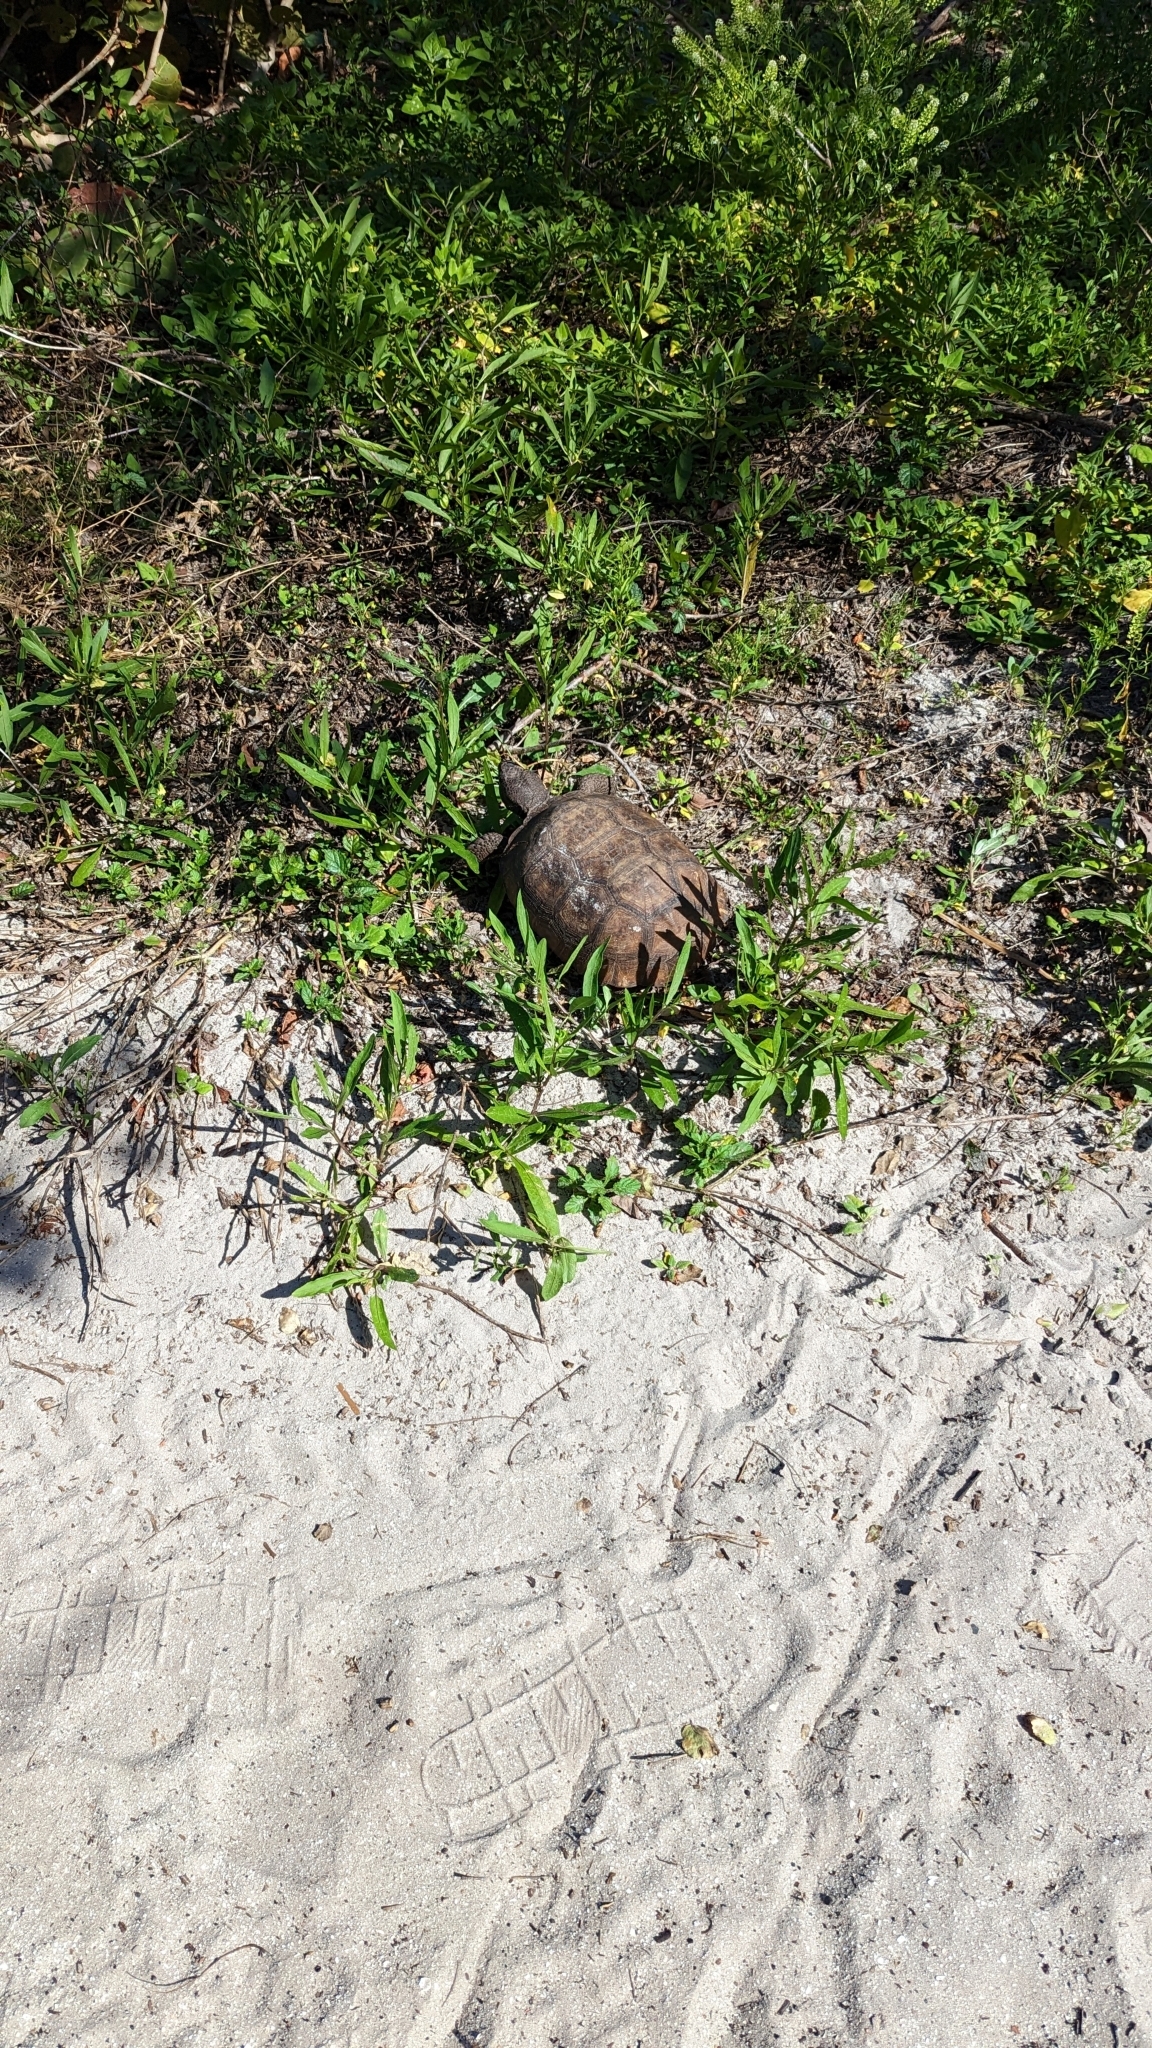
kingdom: Animalia
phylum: Chordata
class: Testudines
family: Testudinidae
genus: Gopherus
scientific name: Gopherus polyphemus
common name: Florida gopher tortoise
